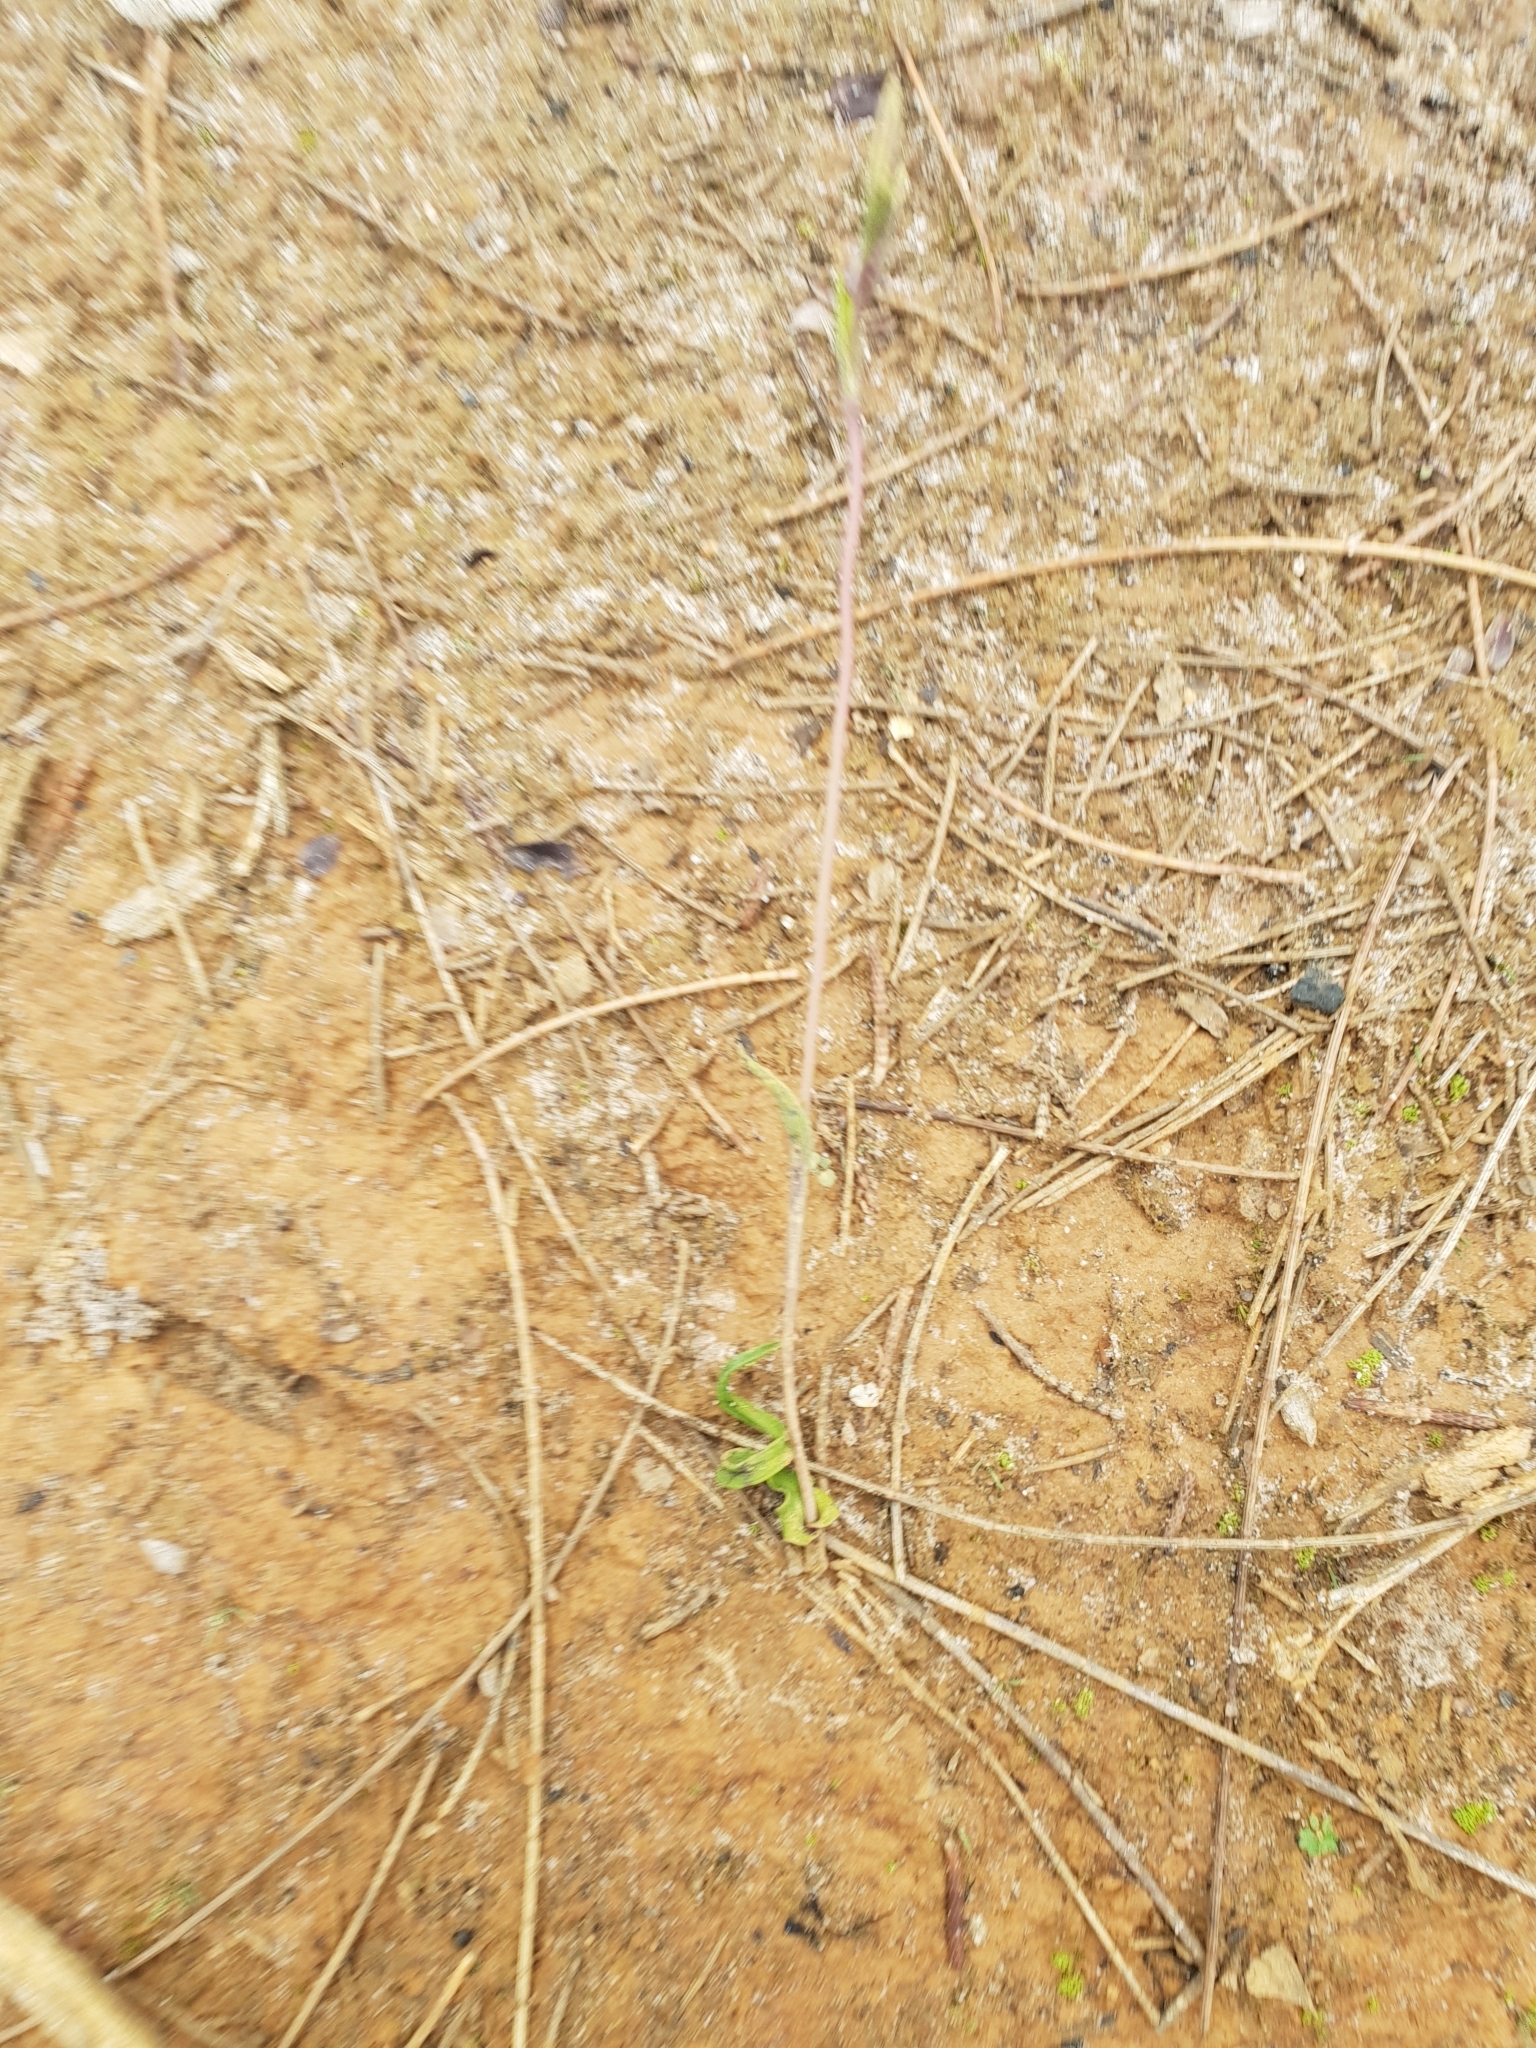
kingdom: Plantae
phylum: Tracheophyta
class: Liliopsida
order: Asparagales
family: Orchidaceae
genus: Thelymitra
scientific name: Thelymitra porphyrosticta
